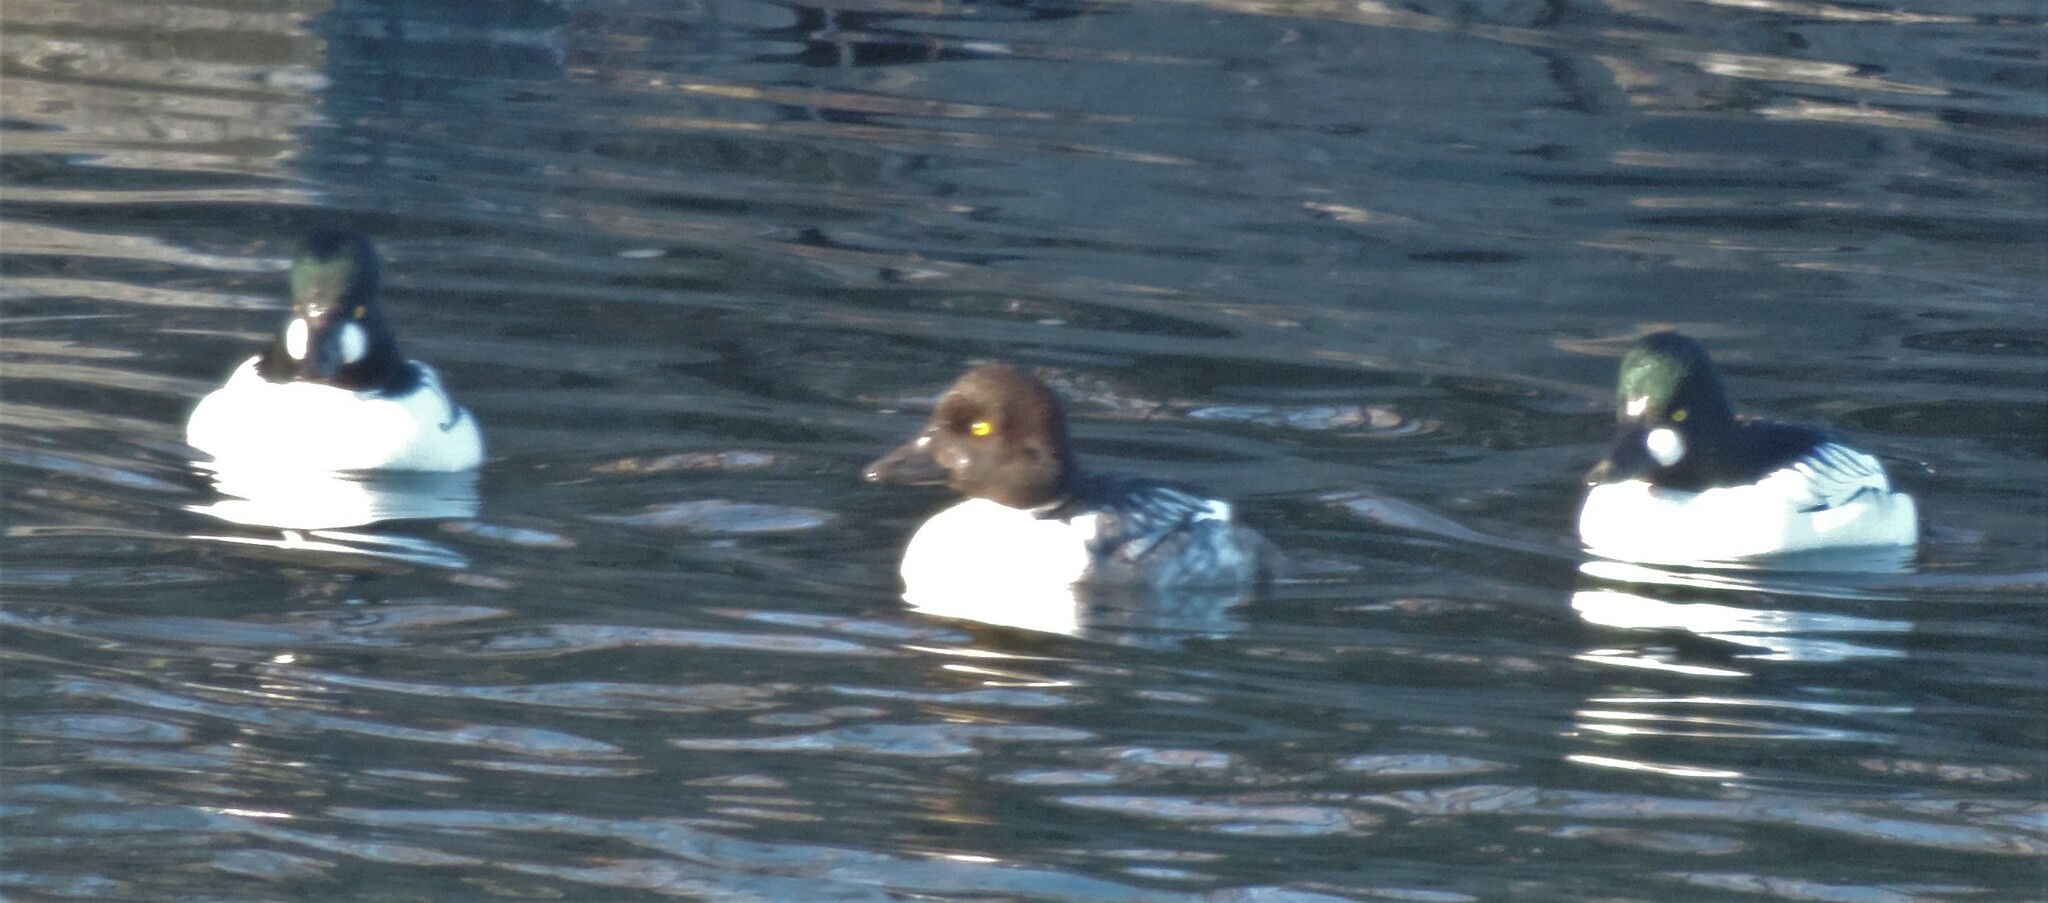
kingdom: Animalia
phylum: Chordata
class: Aves
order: Anseriformes
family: Anatidae
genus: Bucephala
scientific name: Bucephala clangula
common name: Common goldeneye
